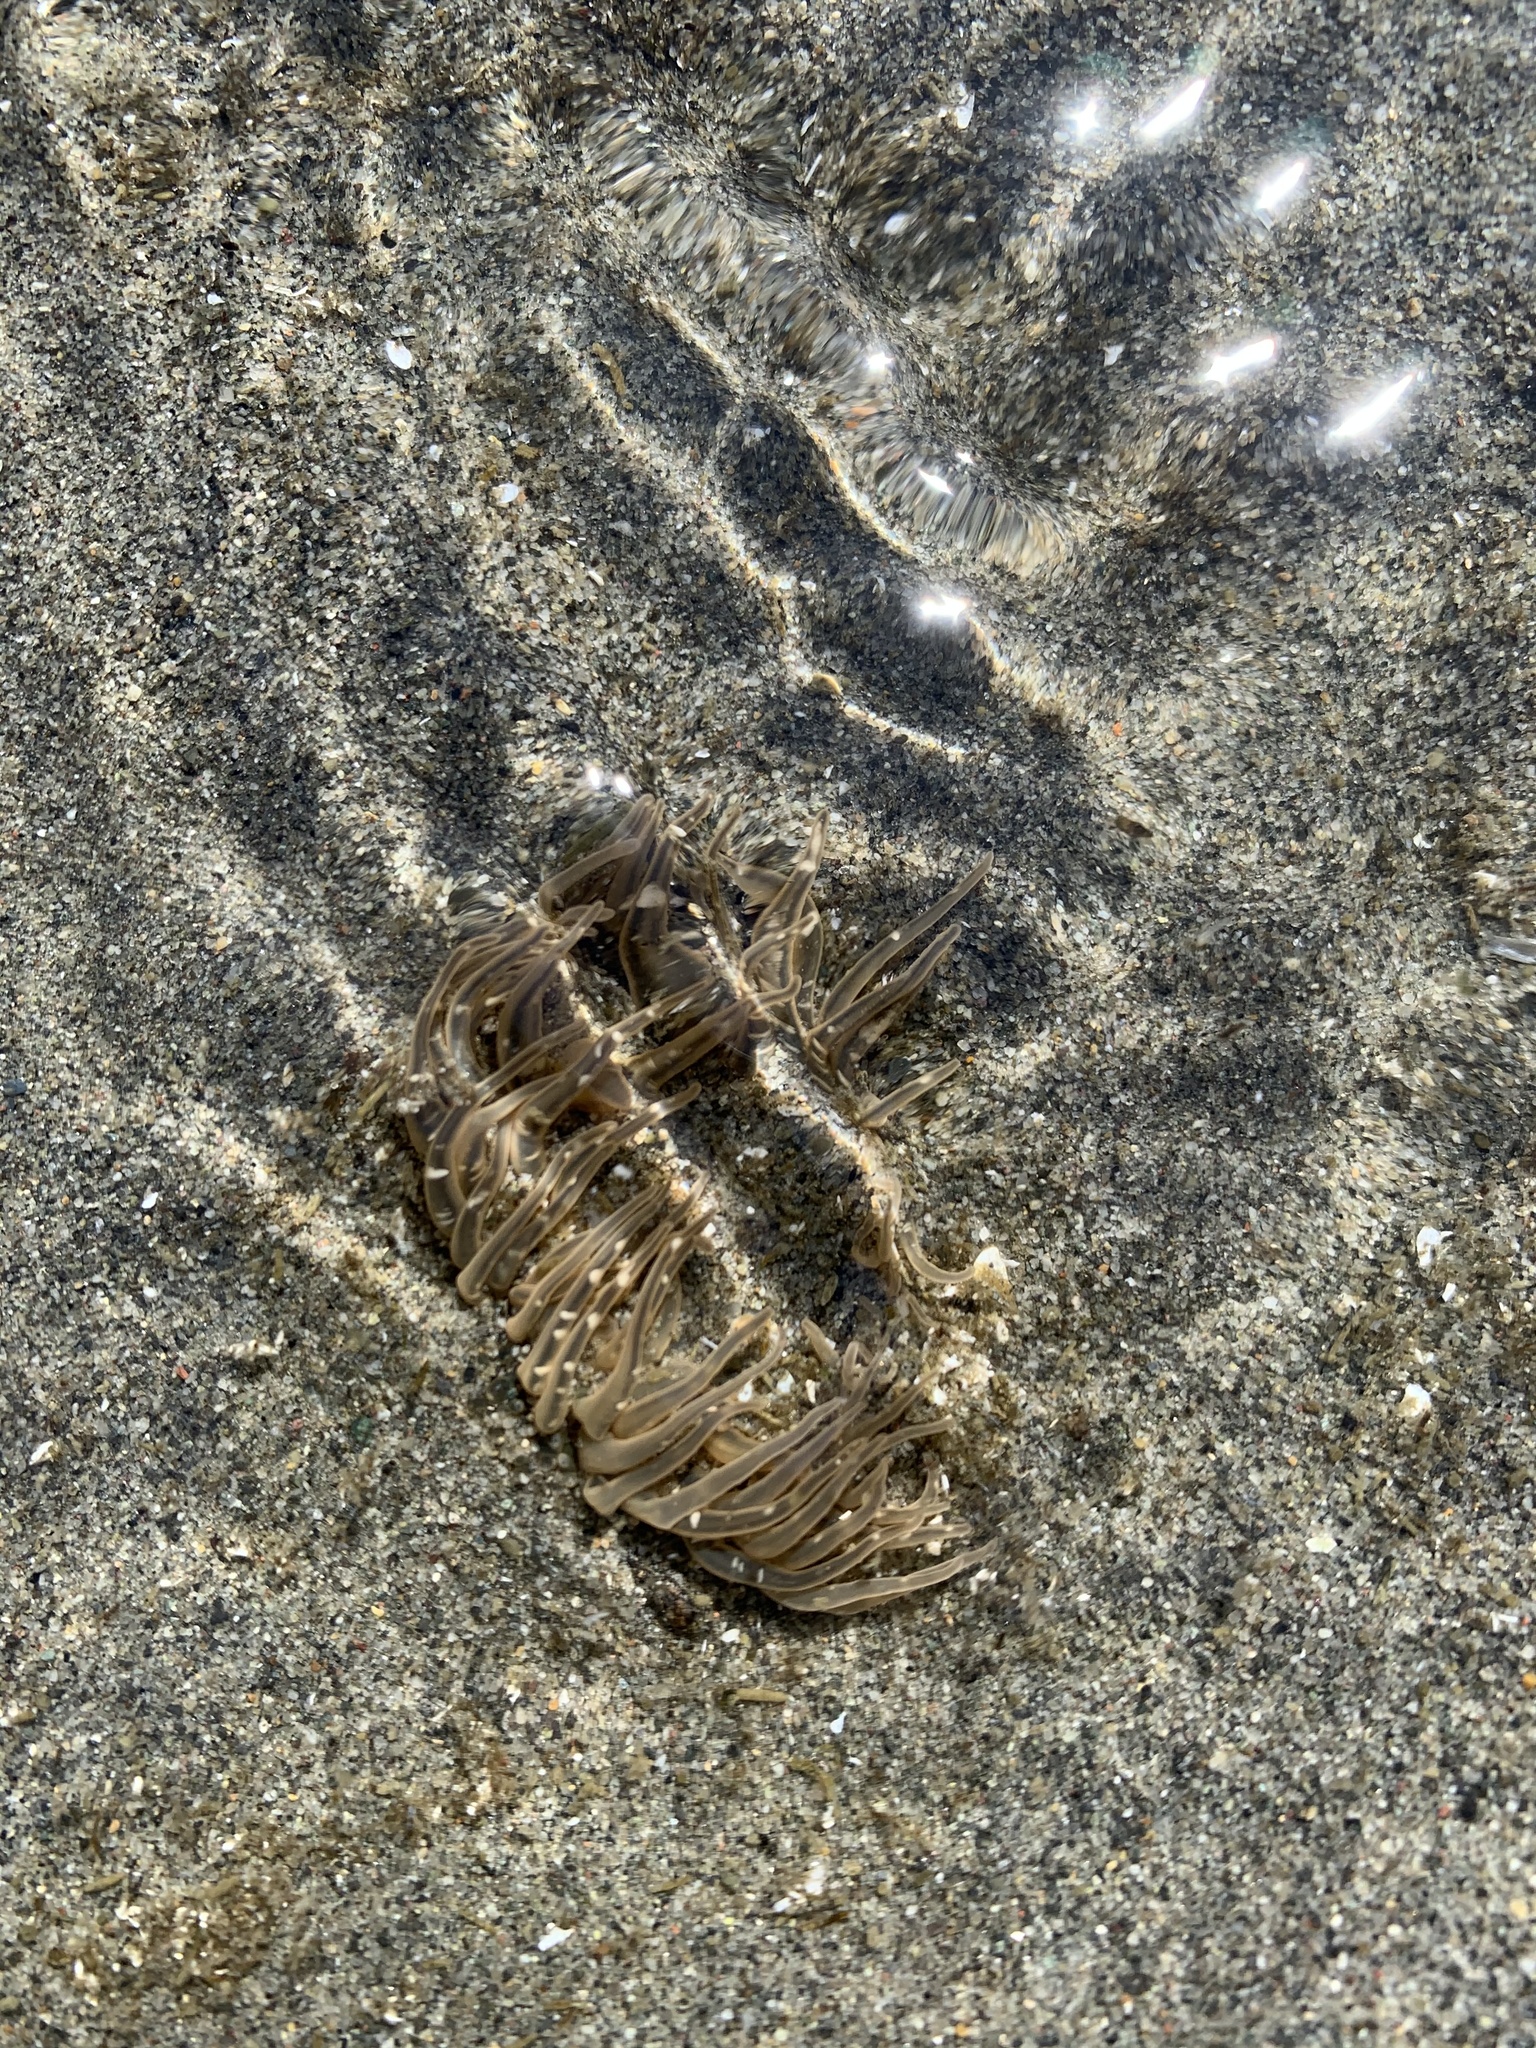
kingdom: Animalia
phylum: Cnidaria
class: Anthozoa
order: Actiniaria
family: Actiniidae
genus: Anthopleura
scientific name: Anthopleura artemisia
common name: Buried sea anemone
